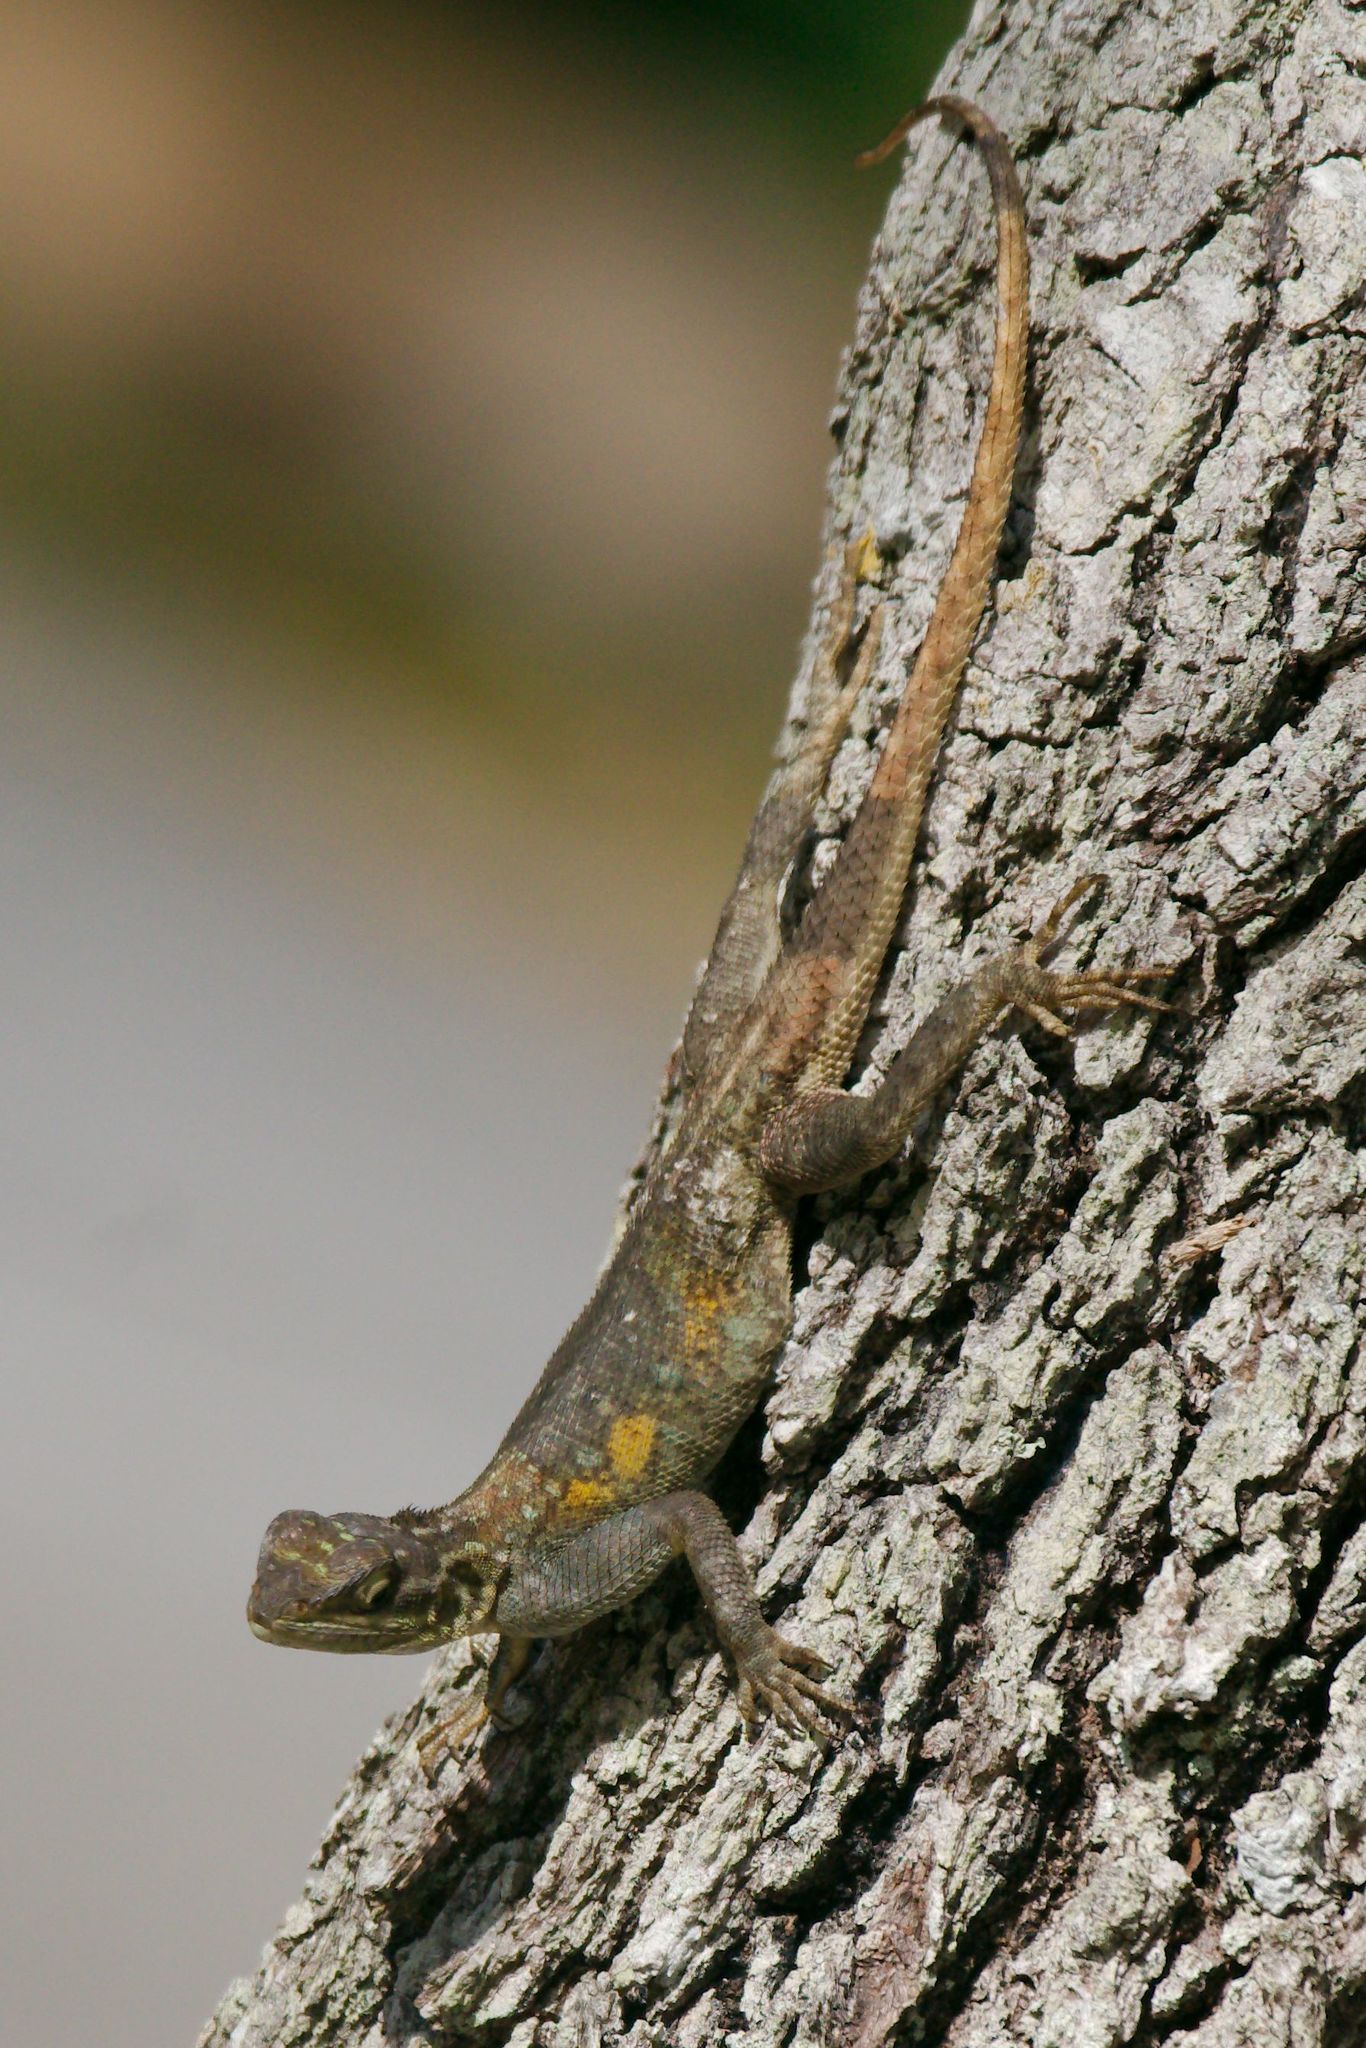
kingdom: Animalia
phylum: Chordata
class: Squamata
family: Agamidae
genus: Agama
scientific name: Agama picticauda
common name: Red-headed agama
